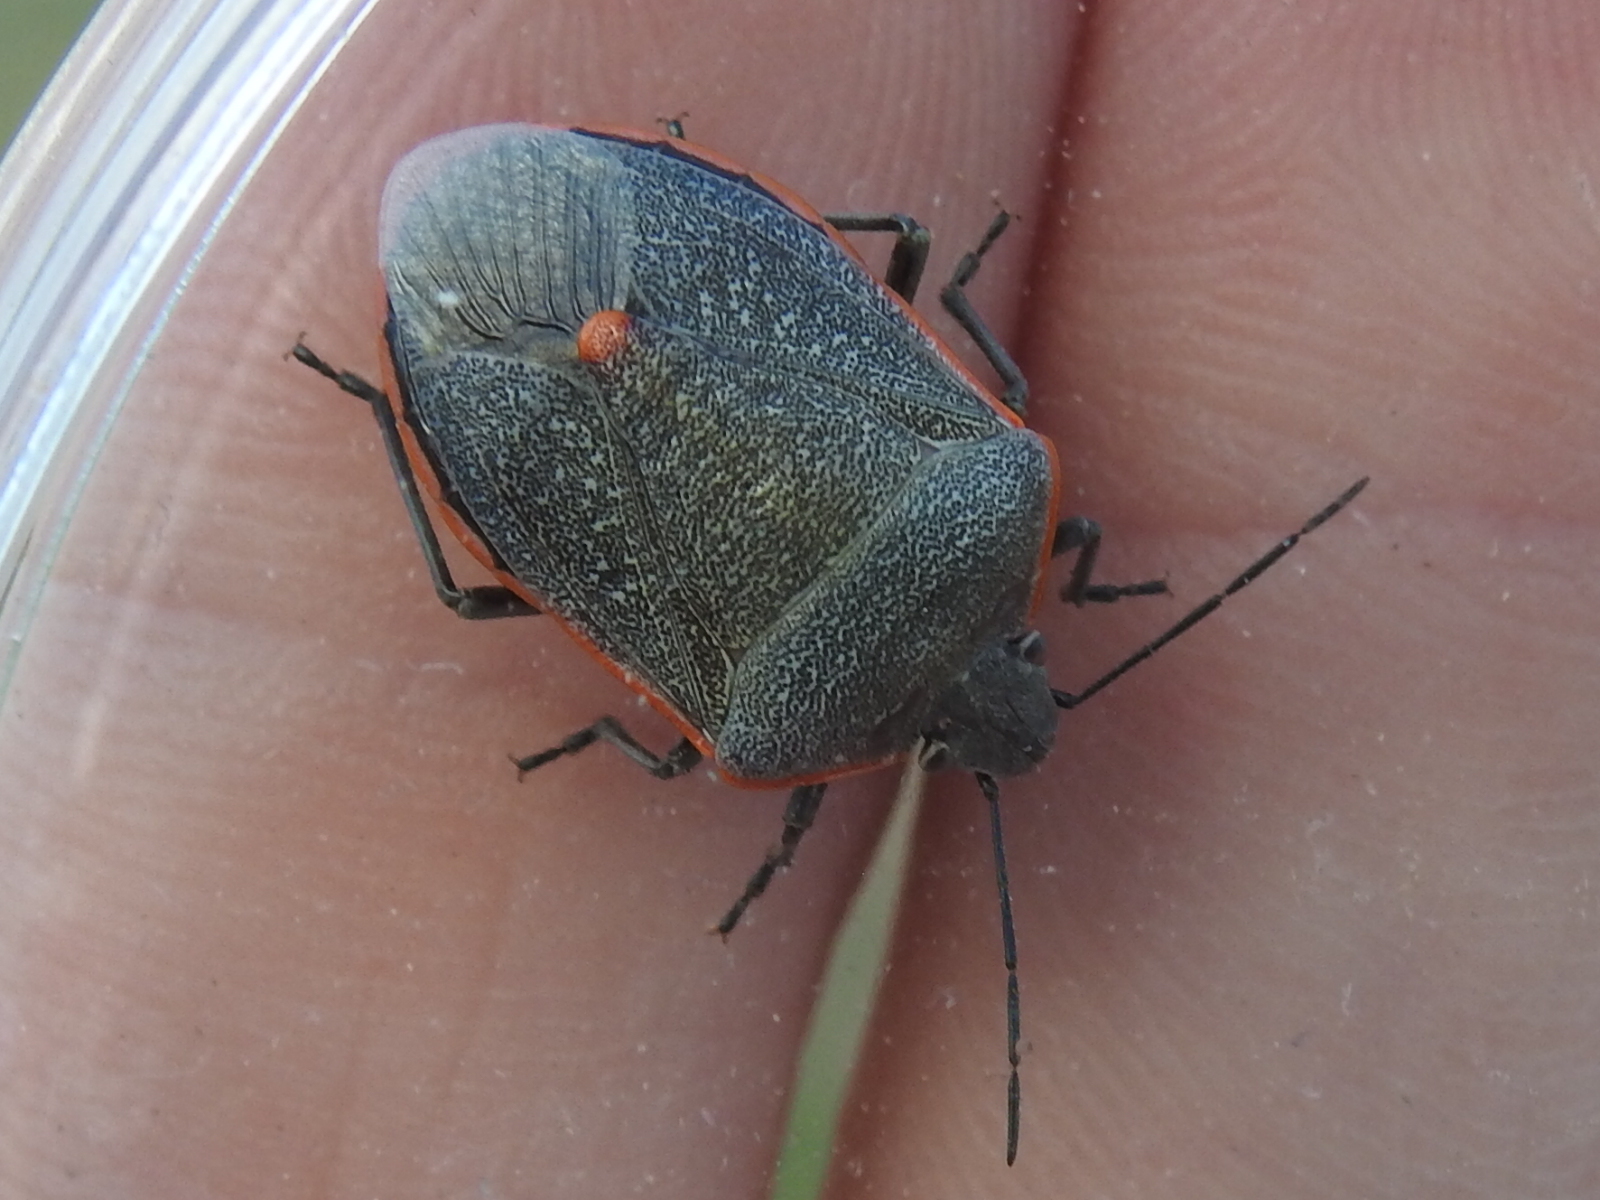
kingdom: Animalia
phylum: Arthropoda
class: Insecta
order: Hemiptera
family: Pentatomidae
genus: Chlorochroa
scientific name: Chlorochroa ligata
